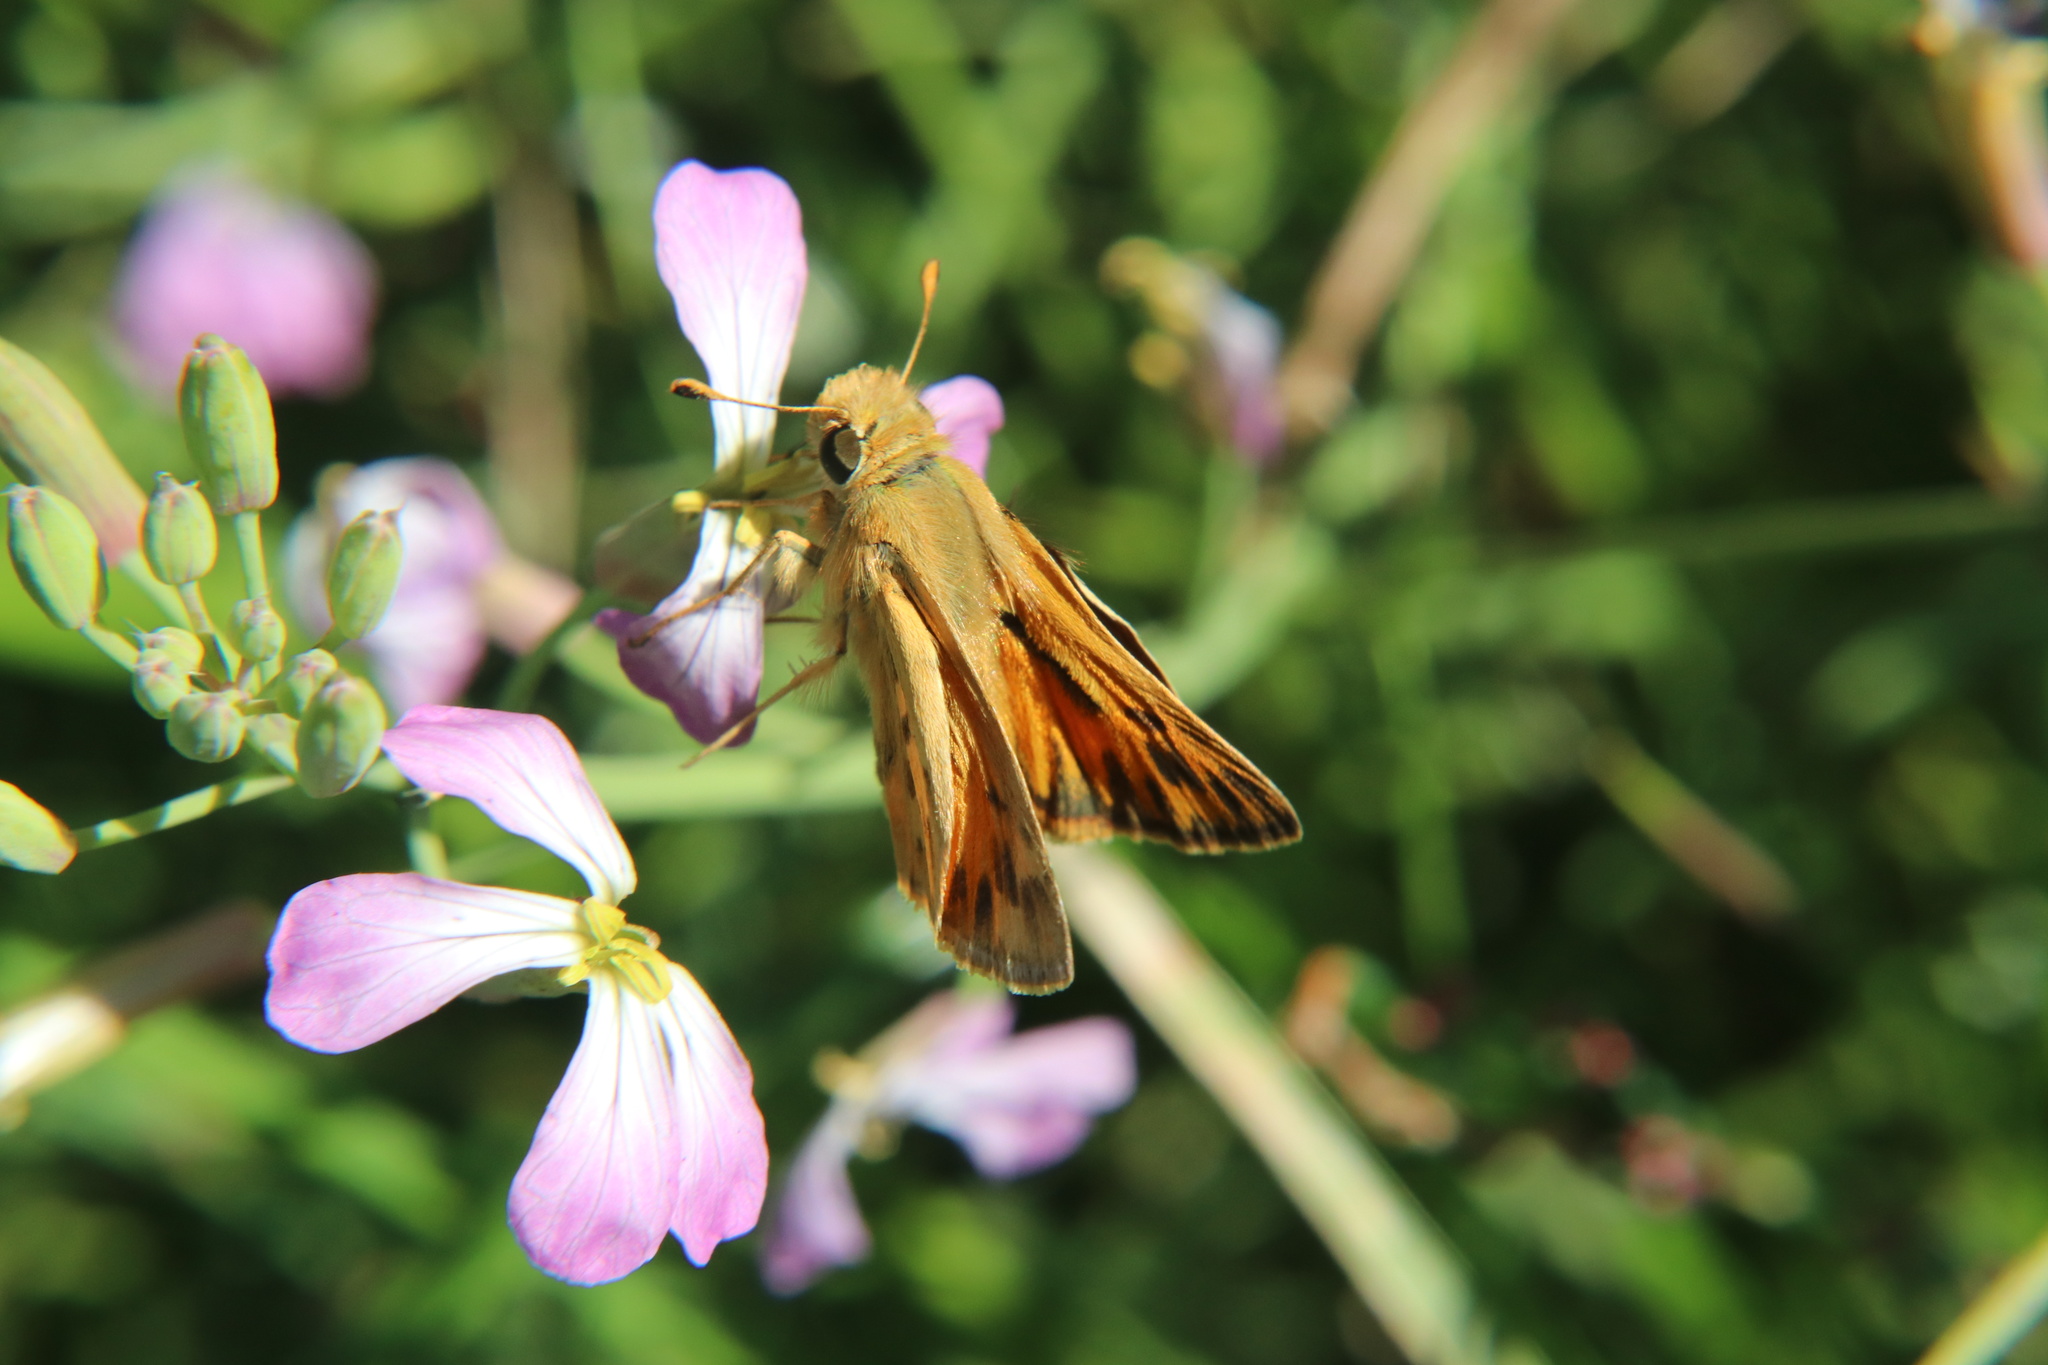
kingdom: Animalia
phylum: Arthropoda
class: Insecta
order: Lepidoptera
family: Hesperiidae
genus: Hylephila
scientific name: Hylephila fasciolata
